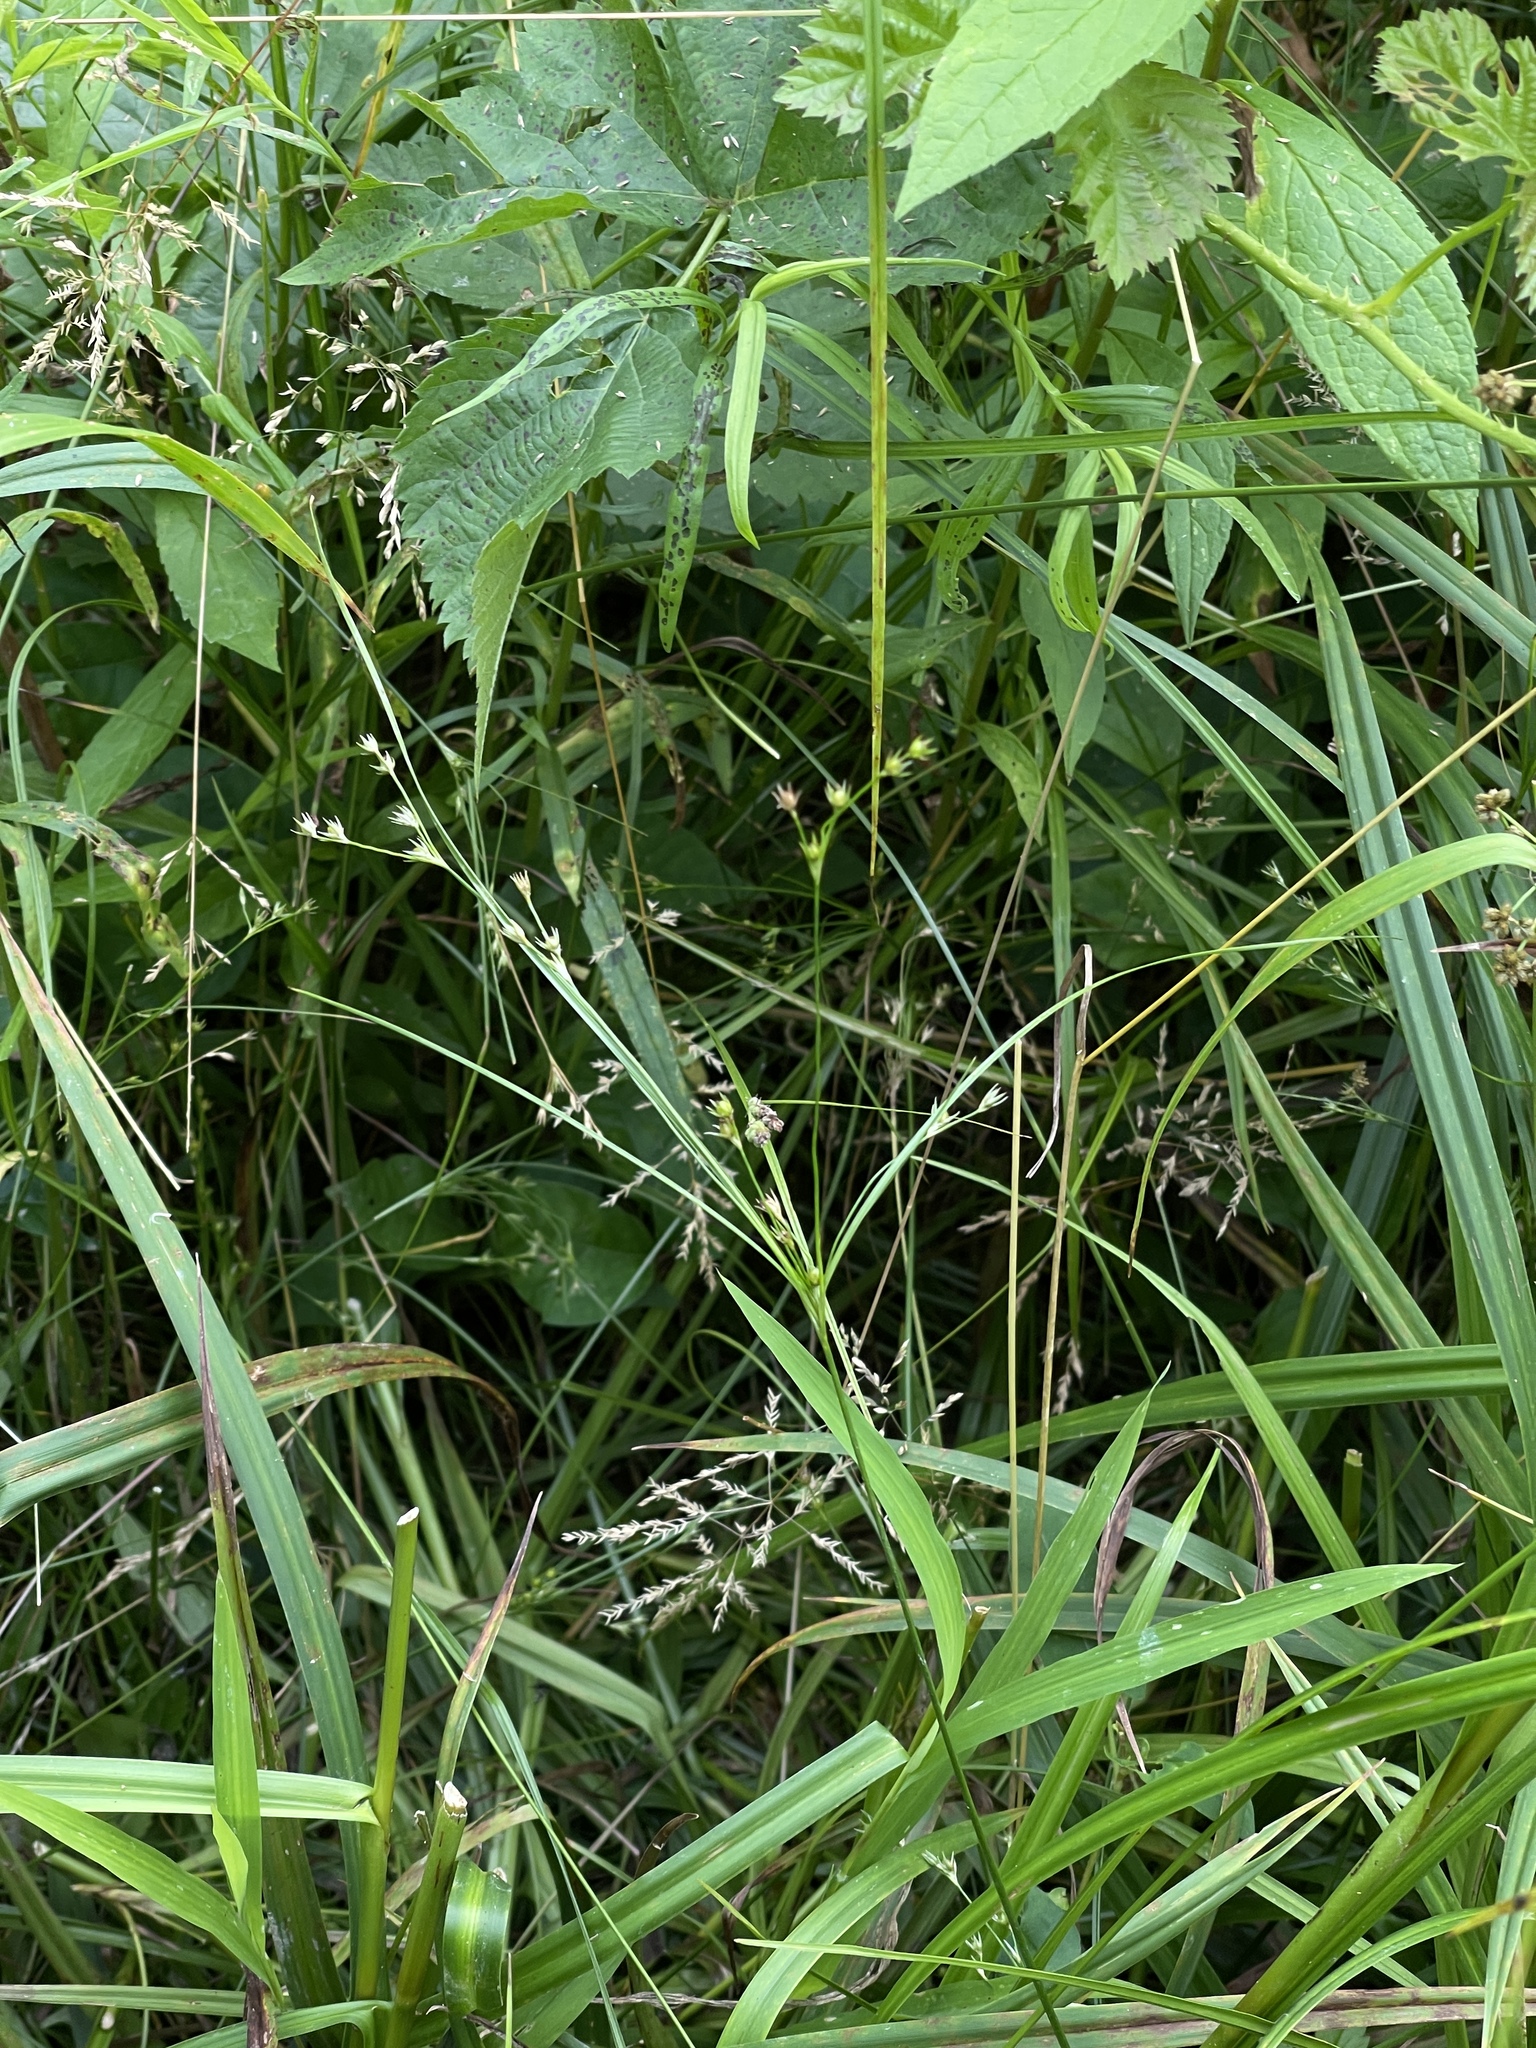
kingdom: Plantae
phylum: Tracheophyta
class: Liliopsida
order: Poales
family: Juncaceae
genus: Juncus
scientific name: Juncus anthelatus
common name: Giant path rush
